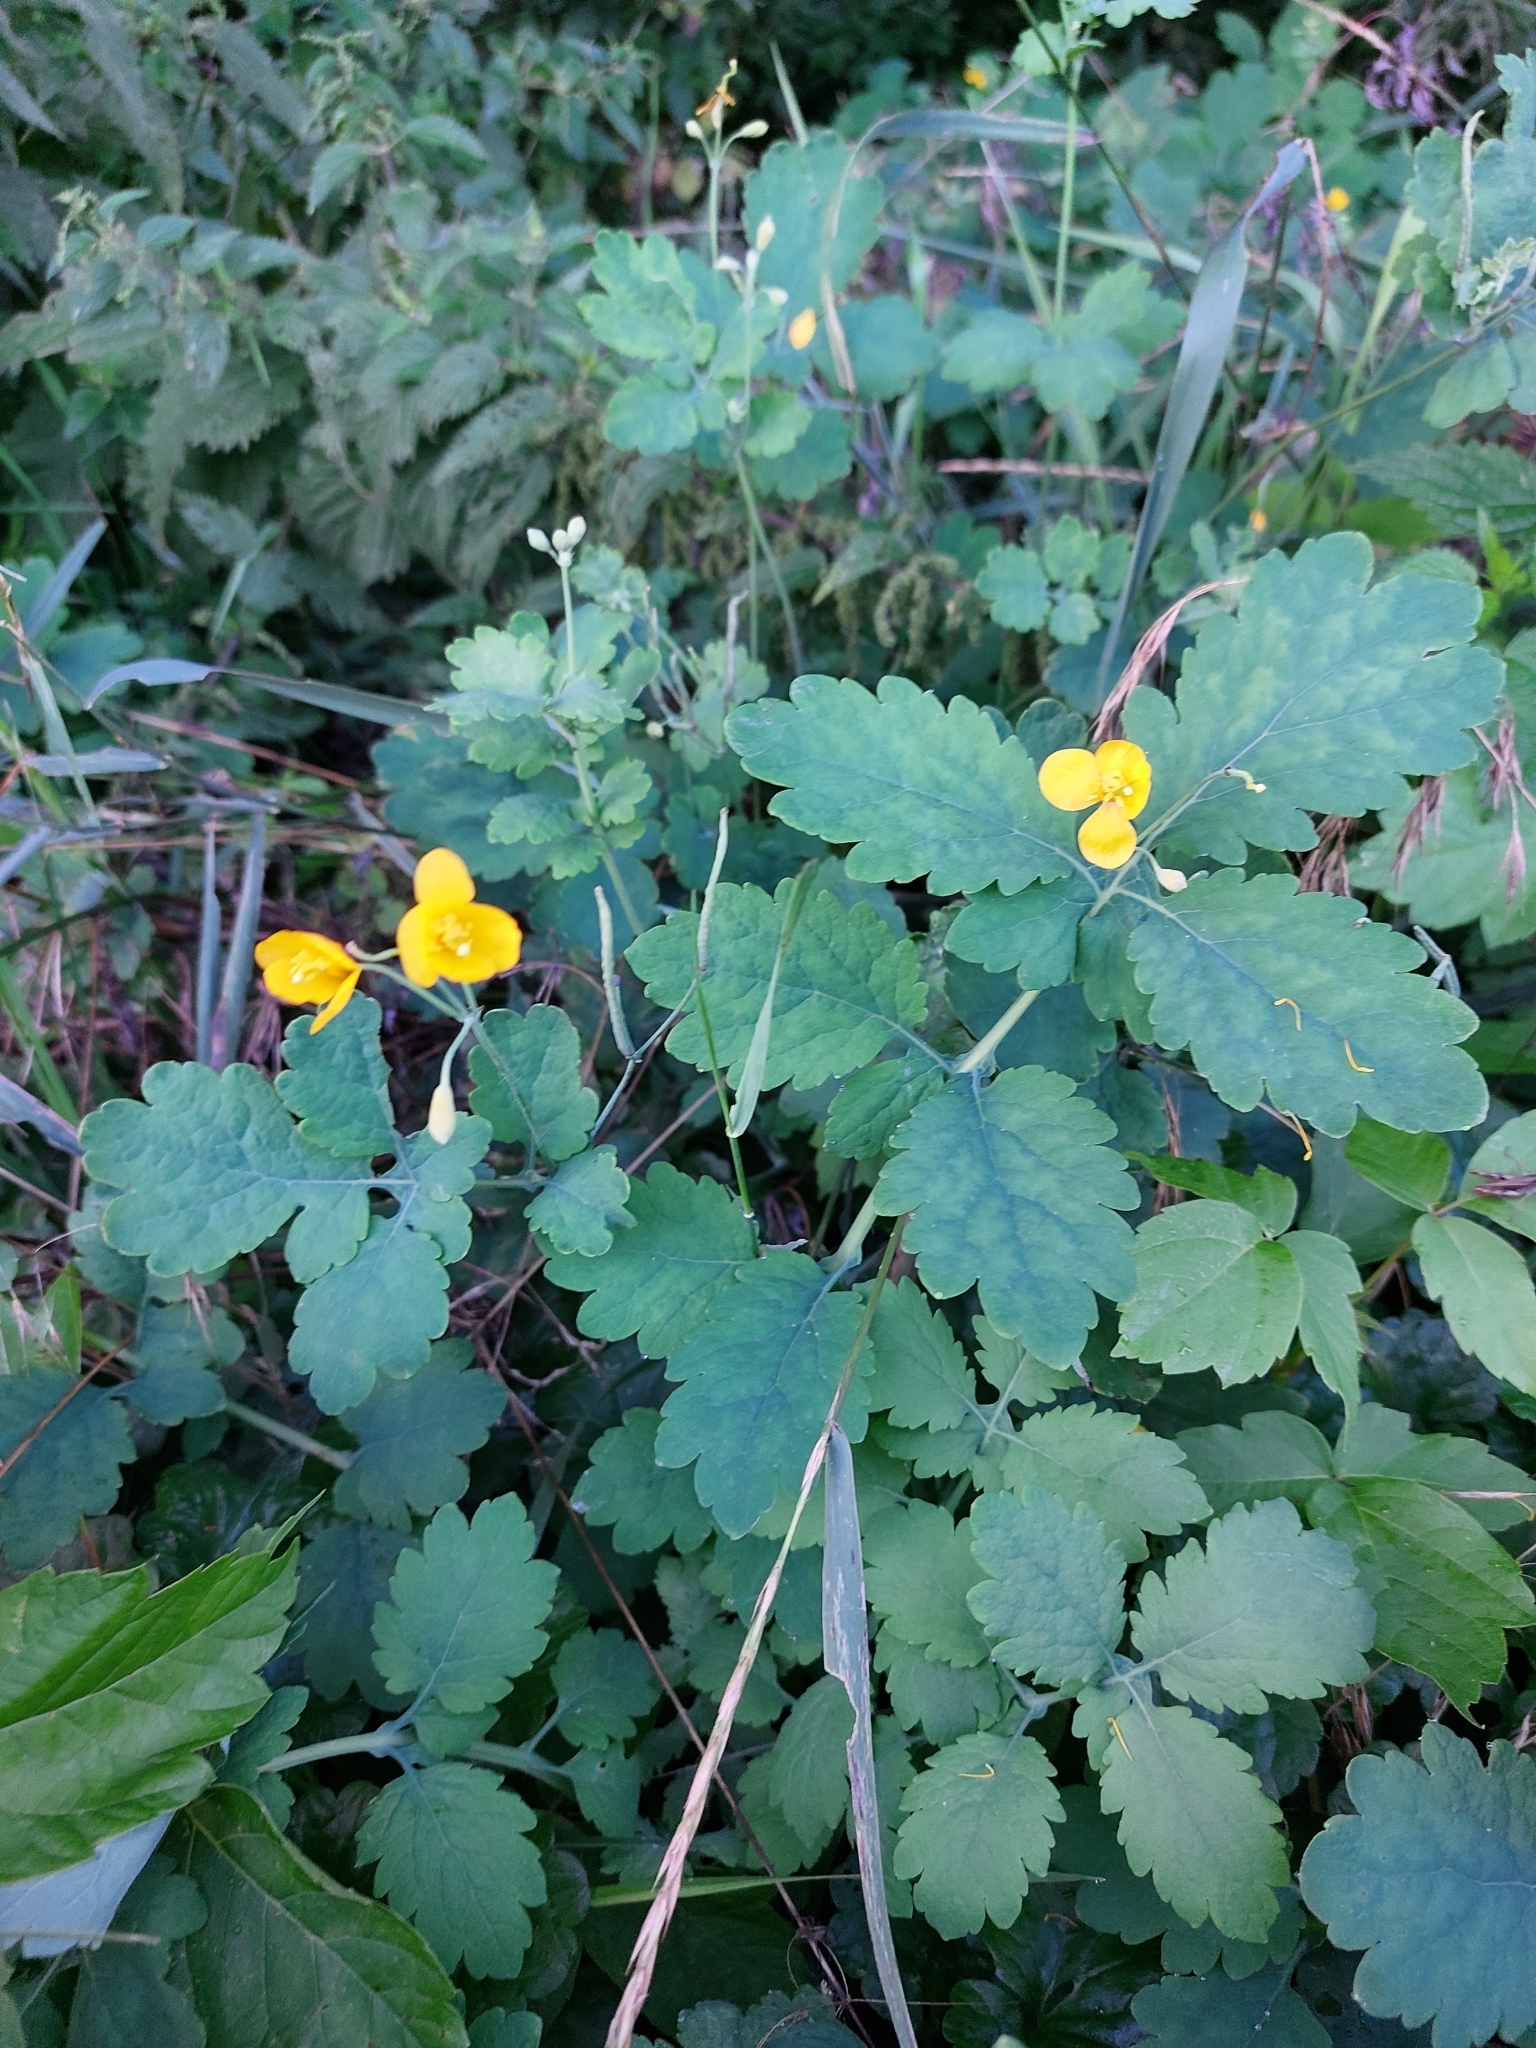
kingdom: Plantae
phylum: Tracheophyta
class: Magnoliopsida
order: Ranunculales
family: Papaveraceae
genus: Chelidonium
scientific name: Chelidonium majus
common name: Greater celandine
